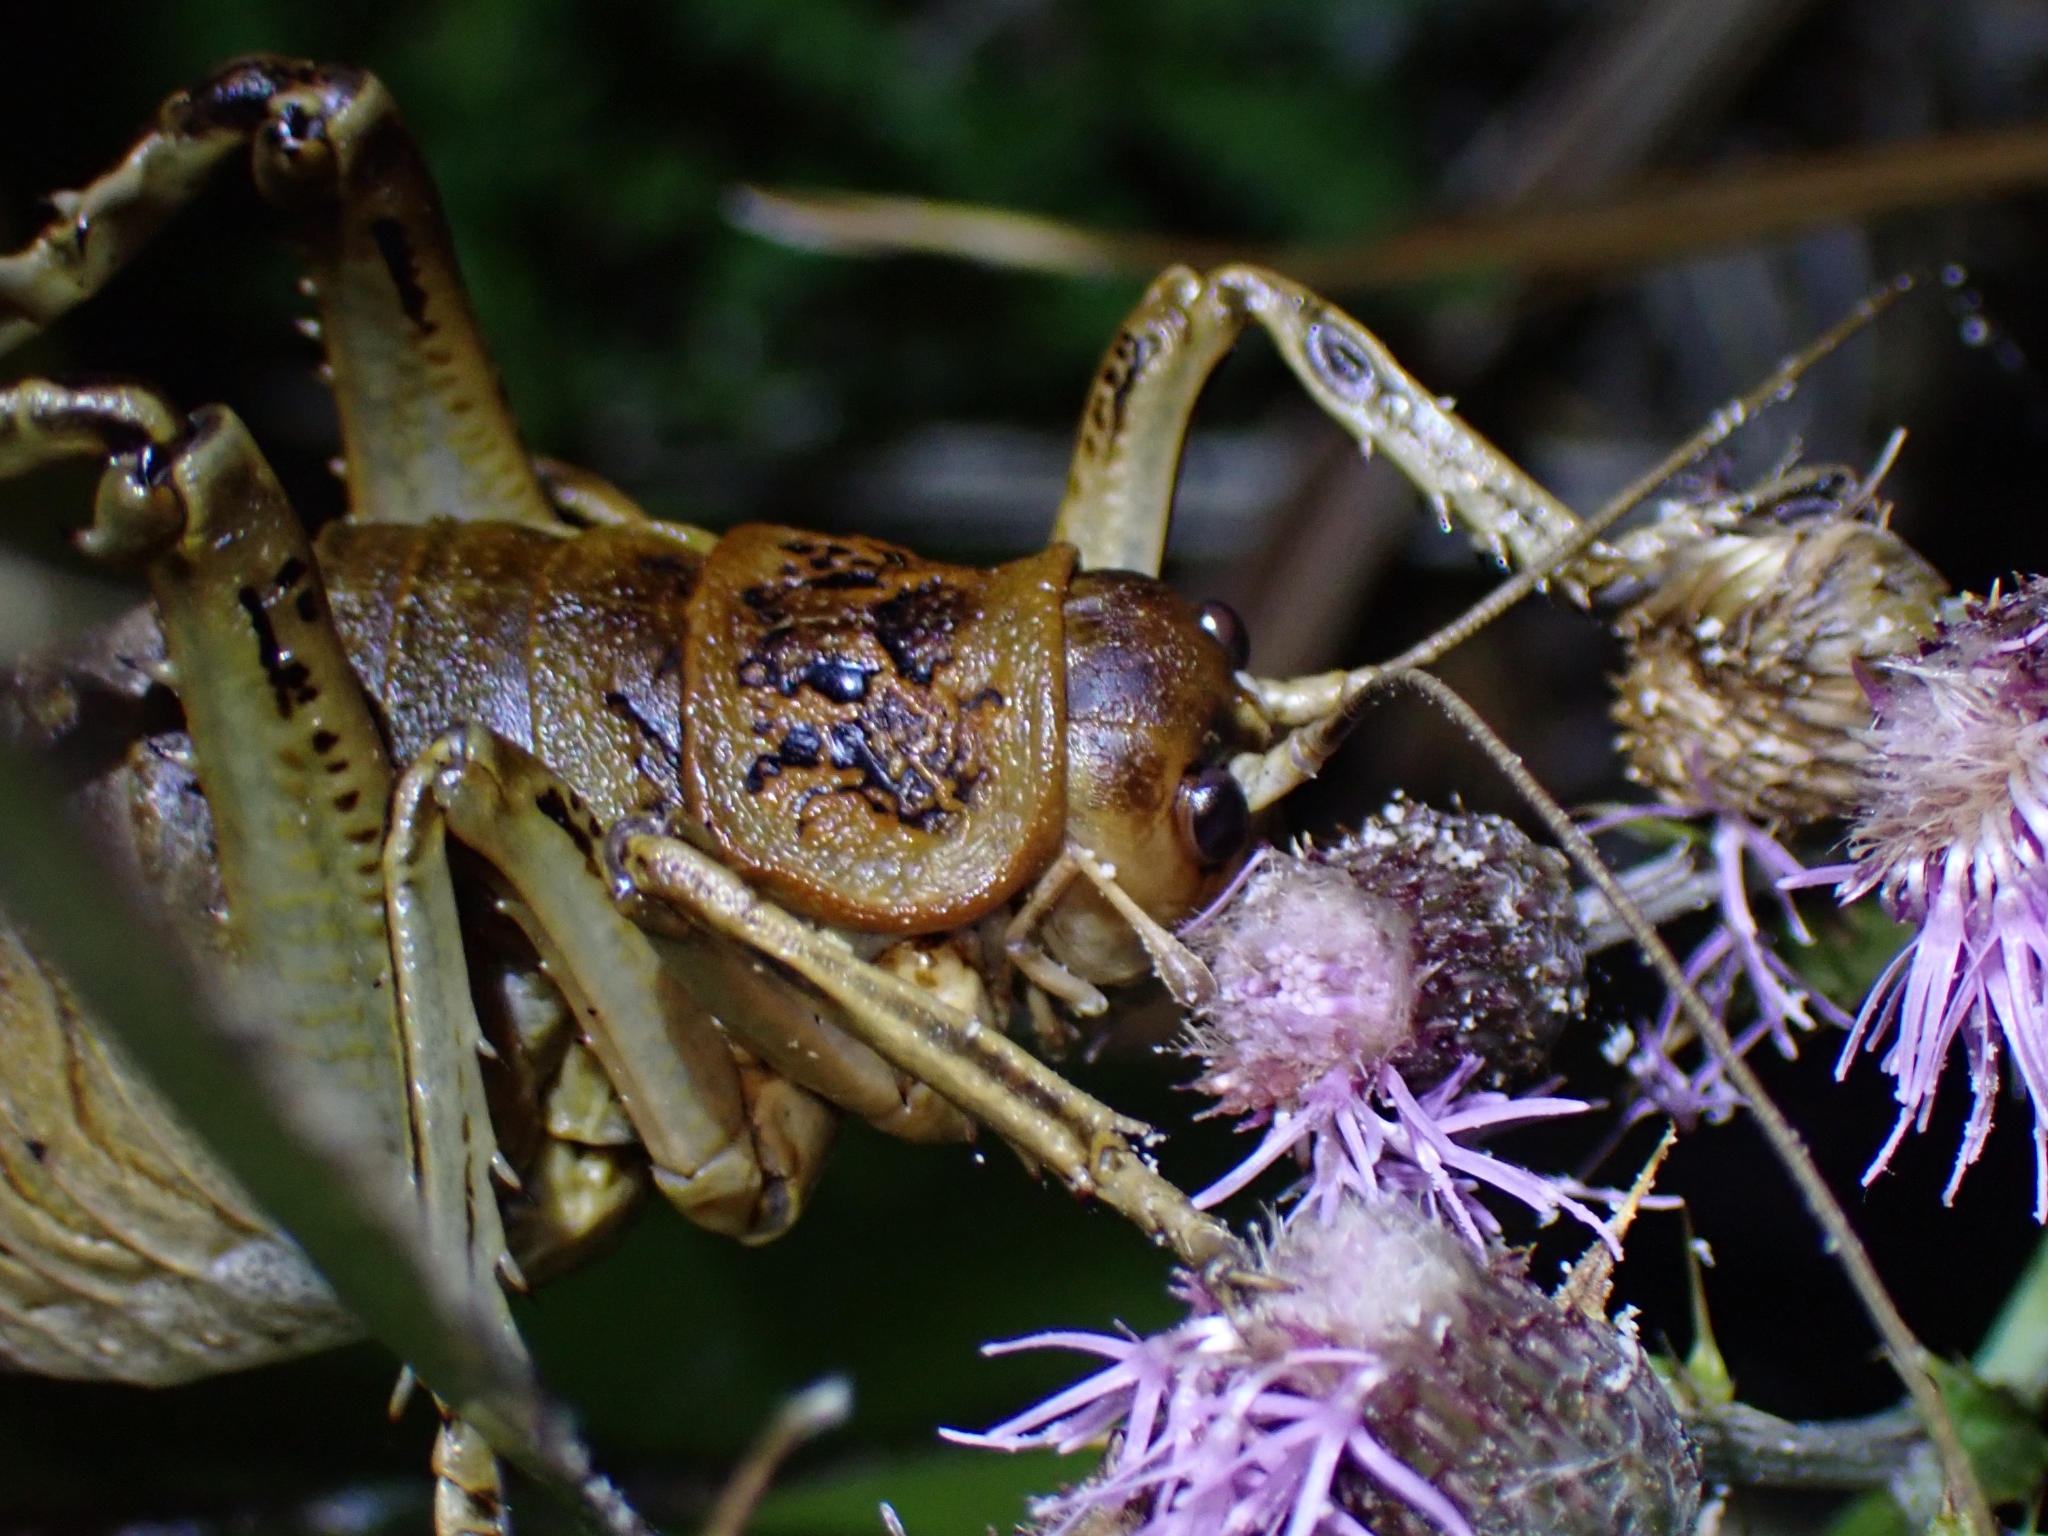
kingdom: Animalia
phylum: Arthropoda
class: Insecta
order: Orthoptera
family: Anostostomatidae
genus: Deinacrida
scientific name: Deinacrida rugosa
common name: Stephens island weta
